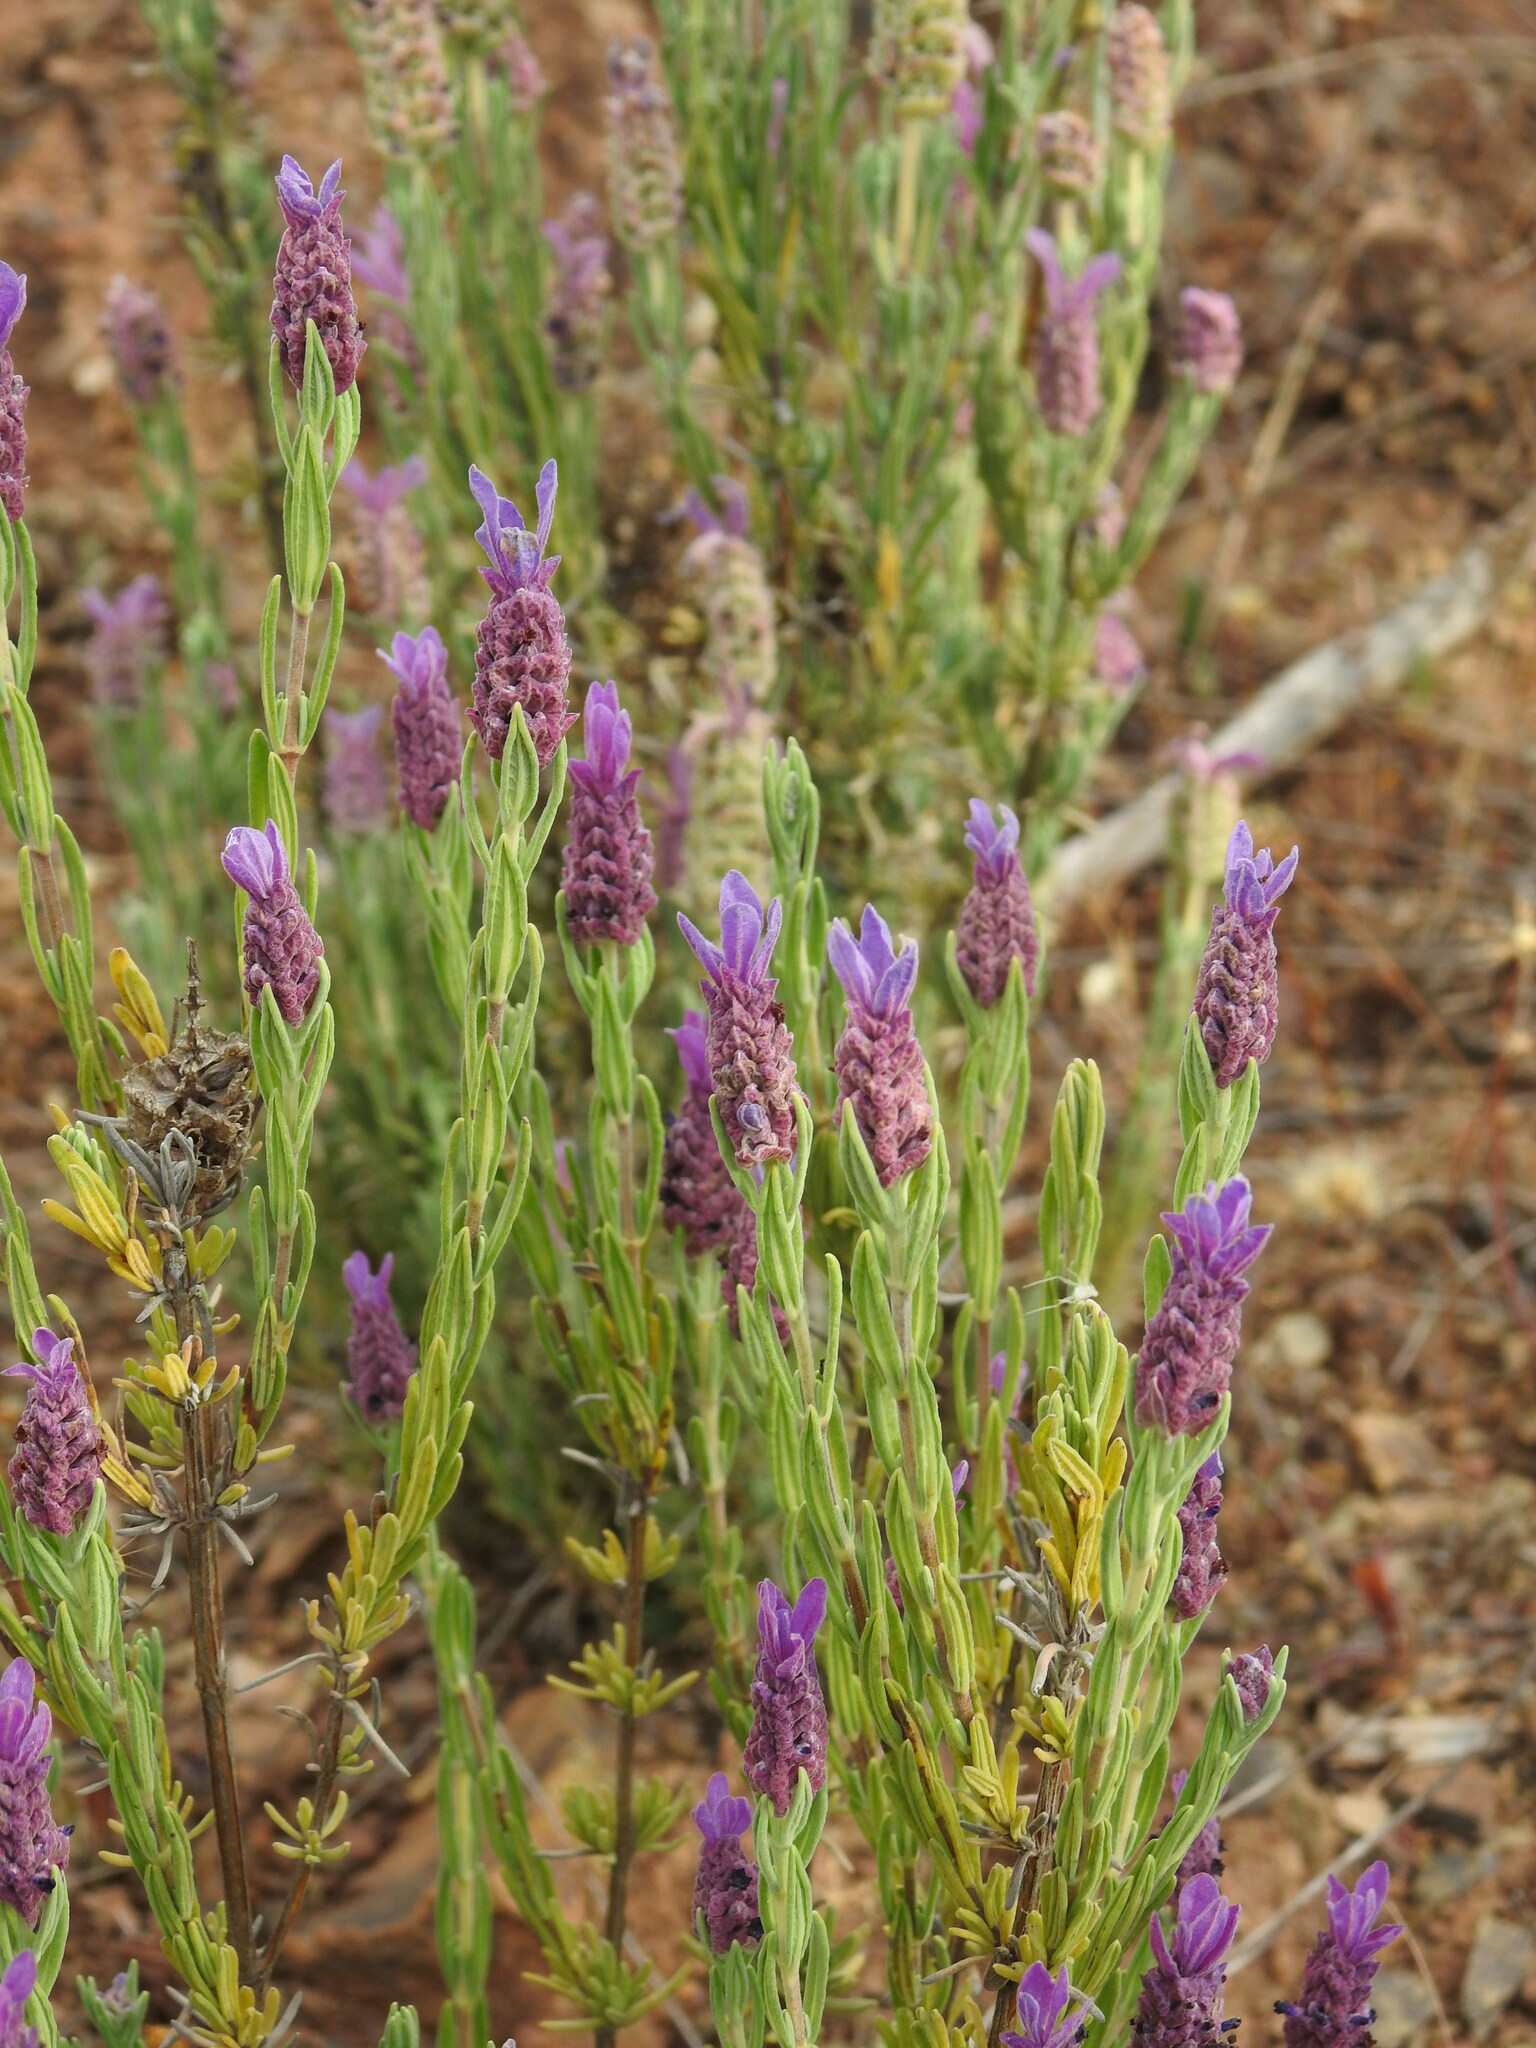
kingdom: Plantae
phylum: Tracheophyta
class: Magnoliopsida
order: Lamiales
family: Lamiaceae
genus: Lavandula
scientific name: Lavandula stoechas
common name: French lavender
